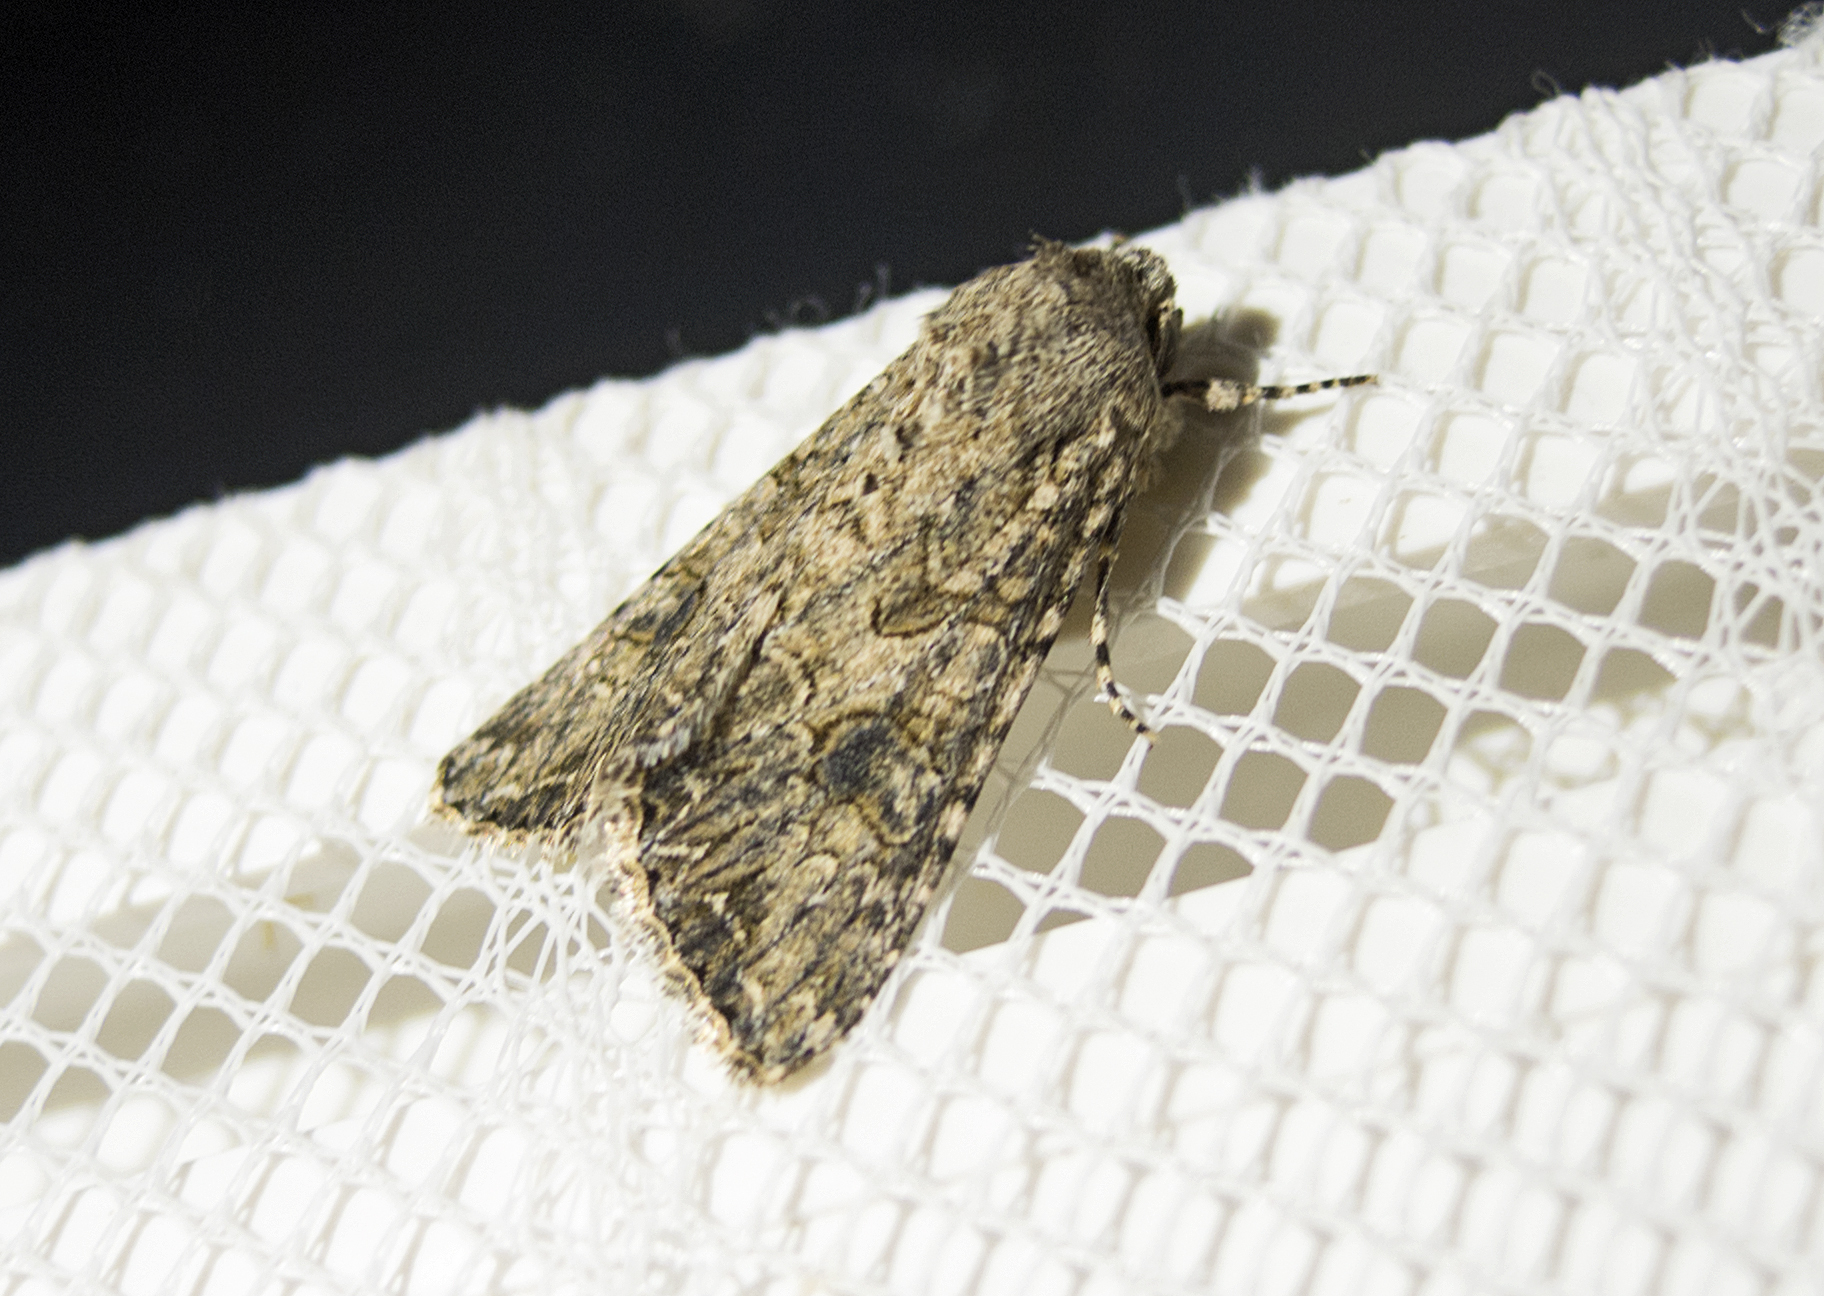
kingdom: Animalia
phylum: Arthropoda
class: Insecta
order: Lepidoptera
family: Noctuidae
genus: Anarta
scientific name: Anarta trifolii
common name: Clover cutworm moth
